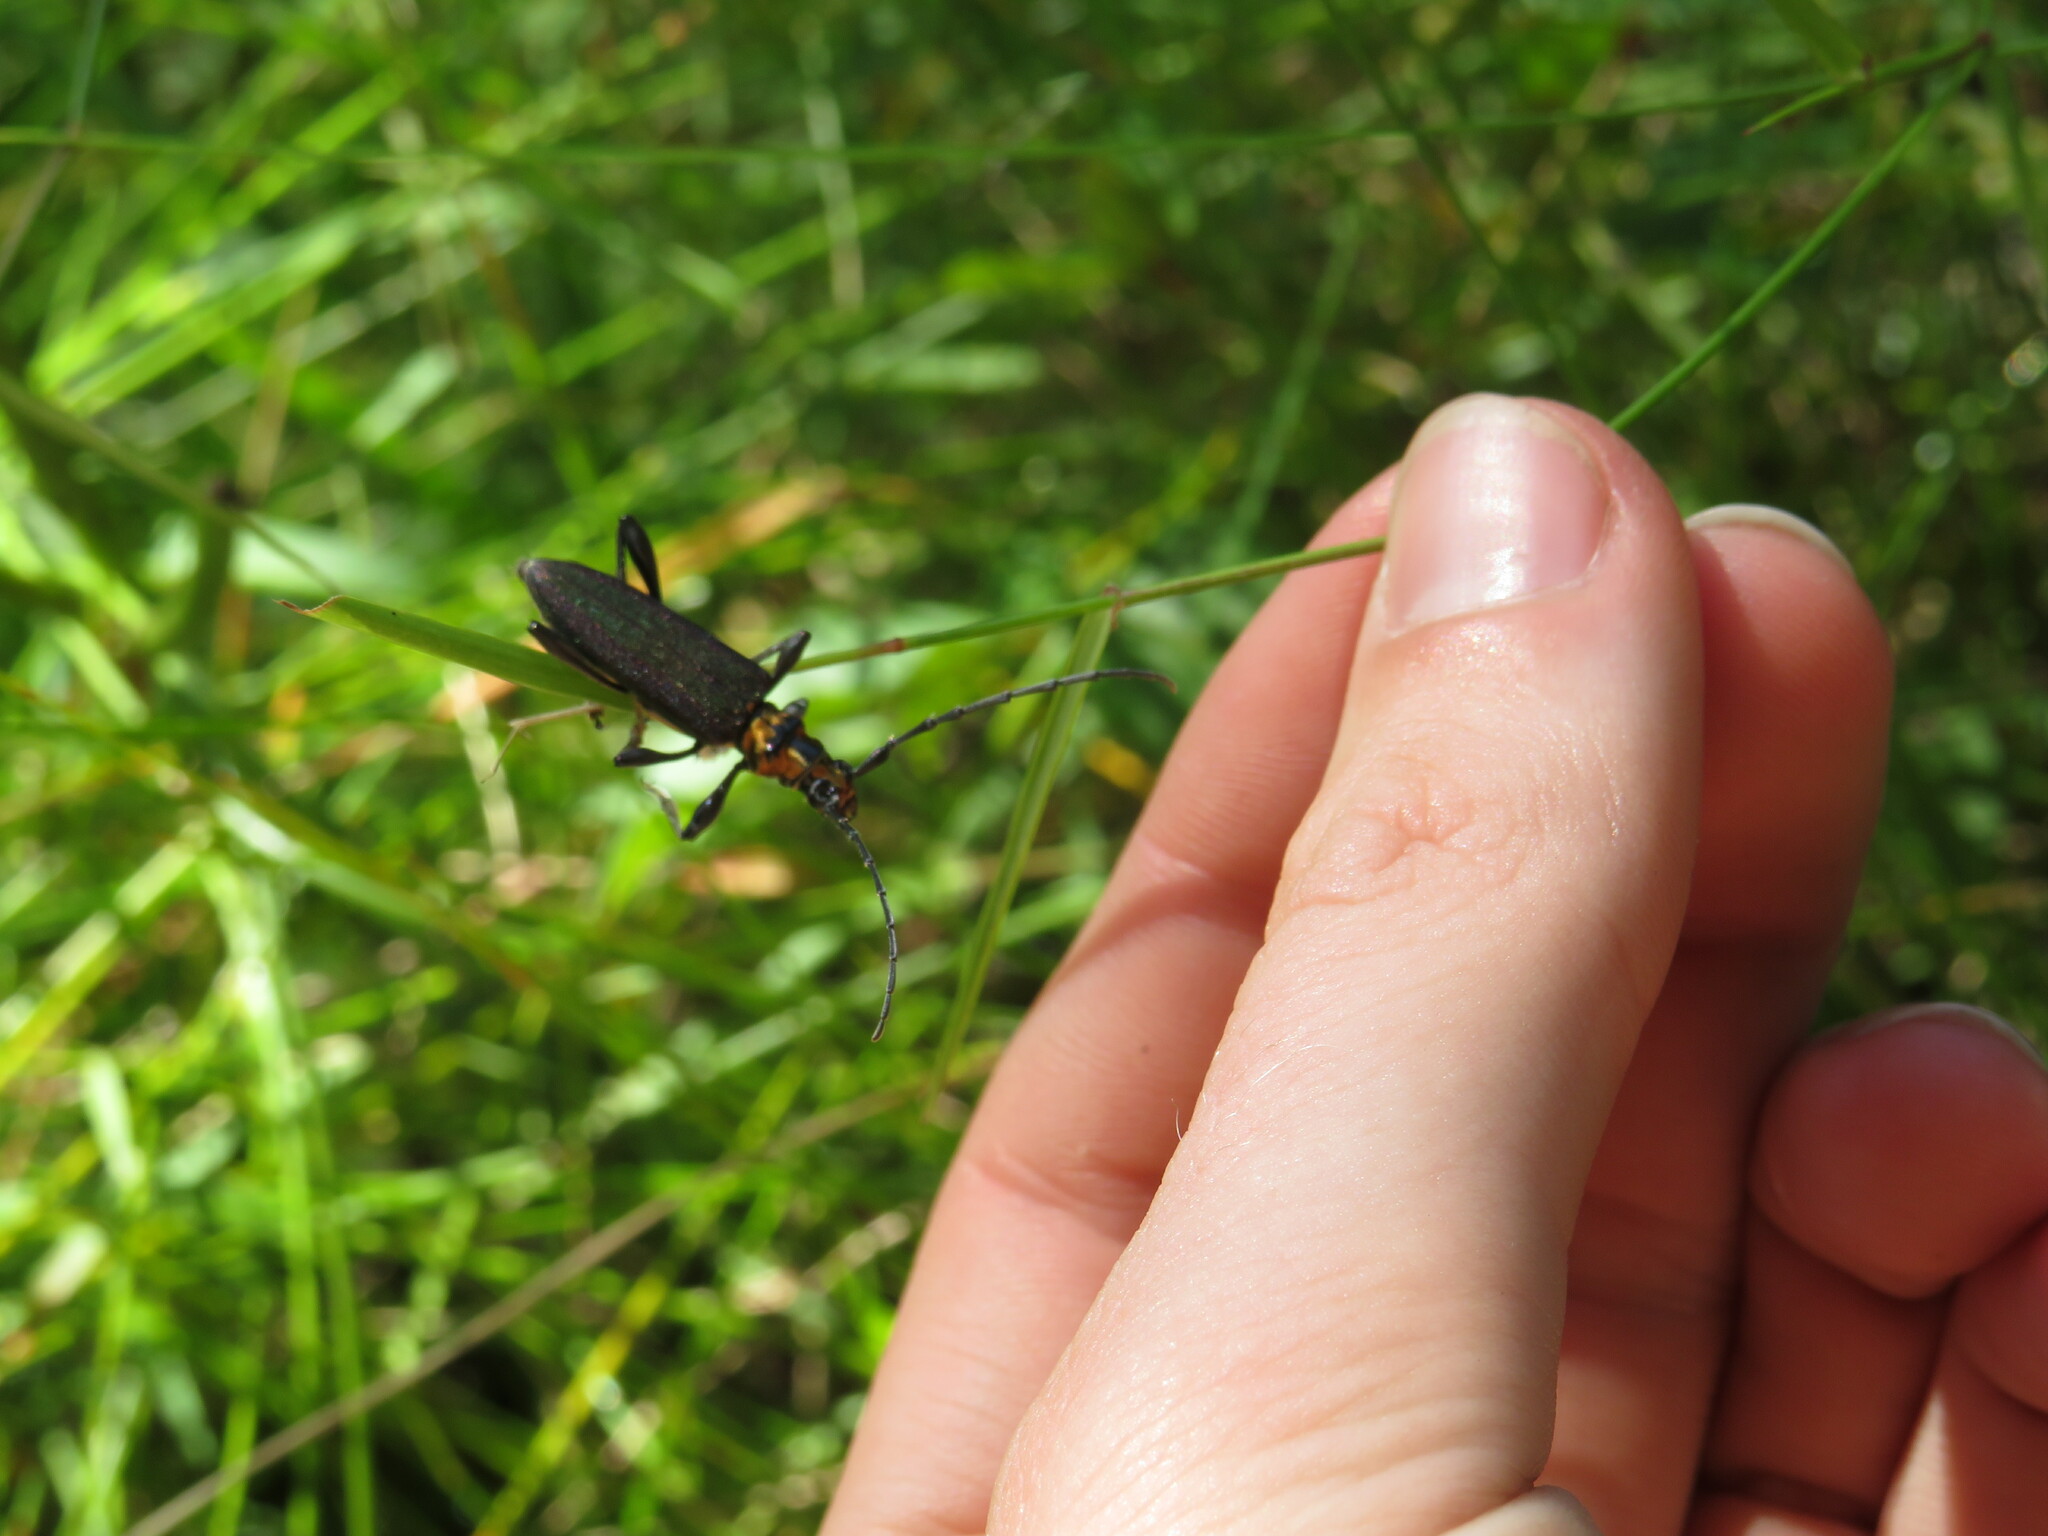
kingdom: Animalia
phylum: Arthropoda
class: Insecta
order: Coleoptera
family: Cerambycidae
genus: Ochimus
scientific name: Ochimus grobbelaarae
